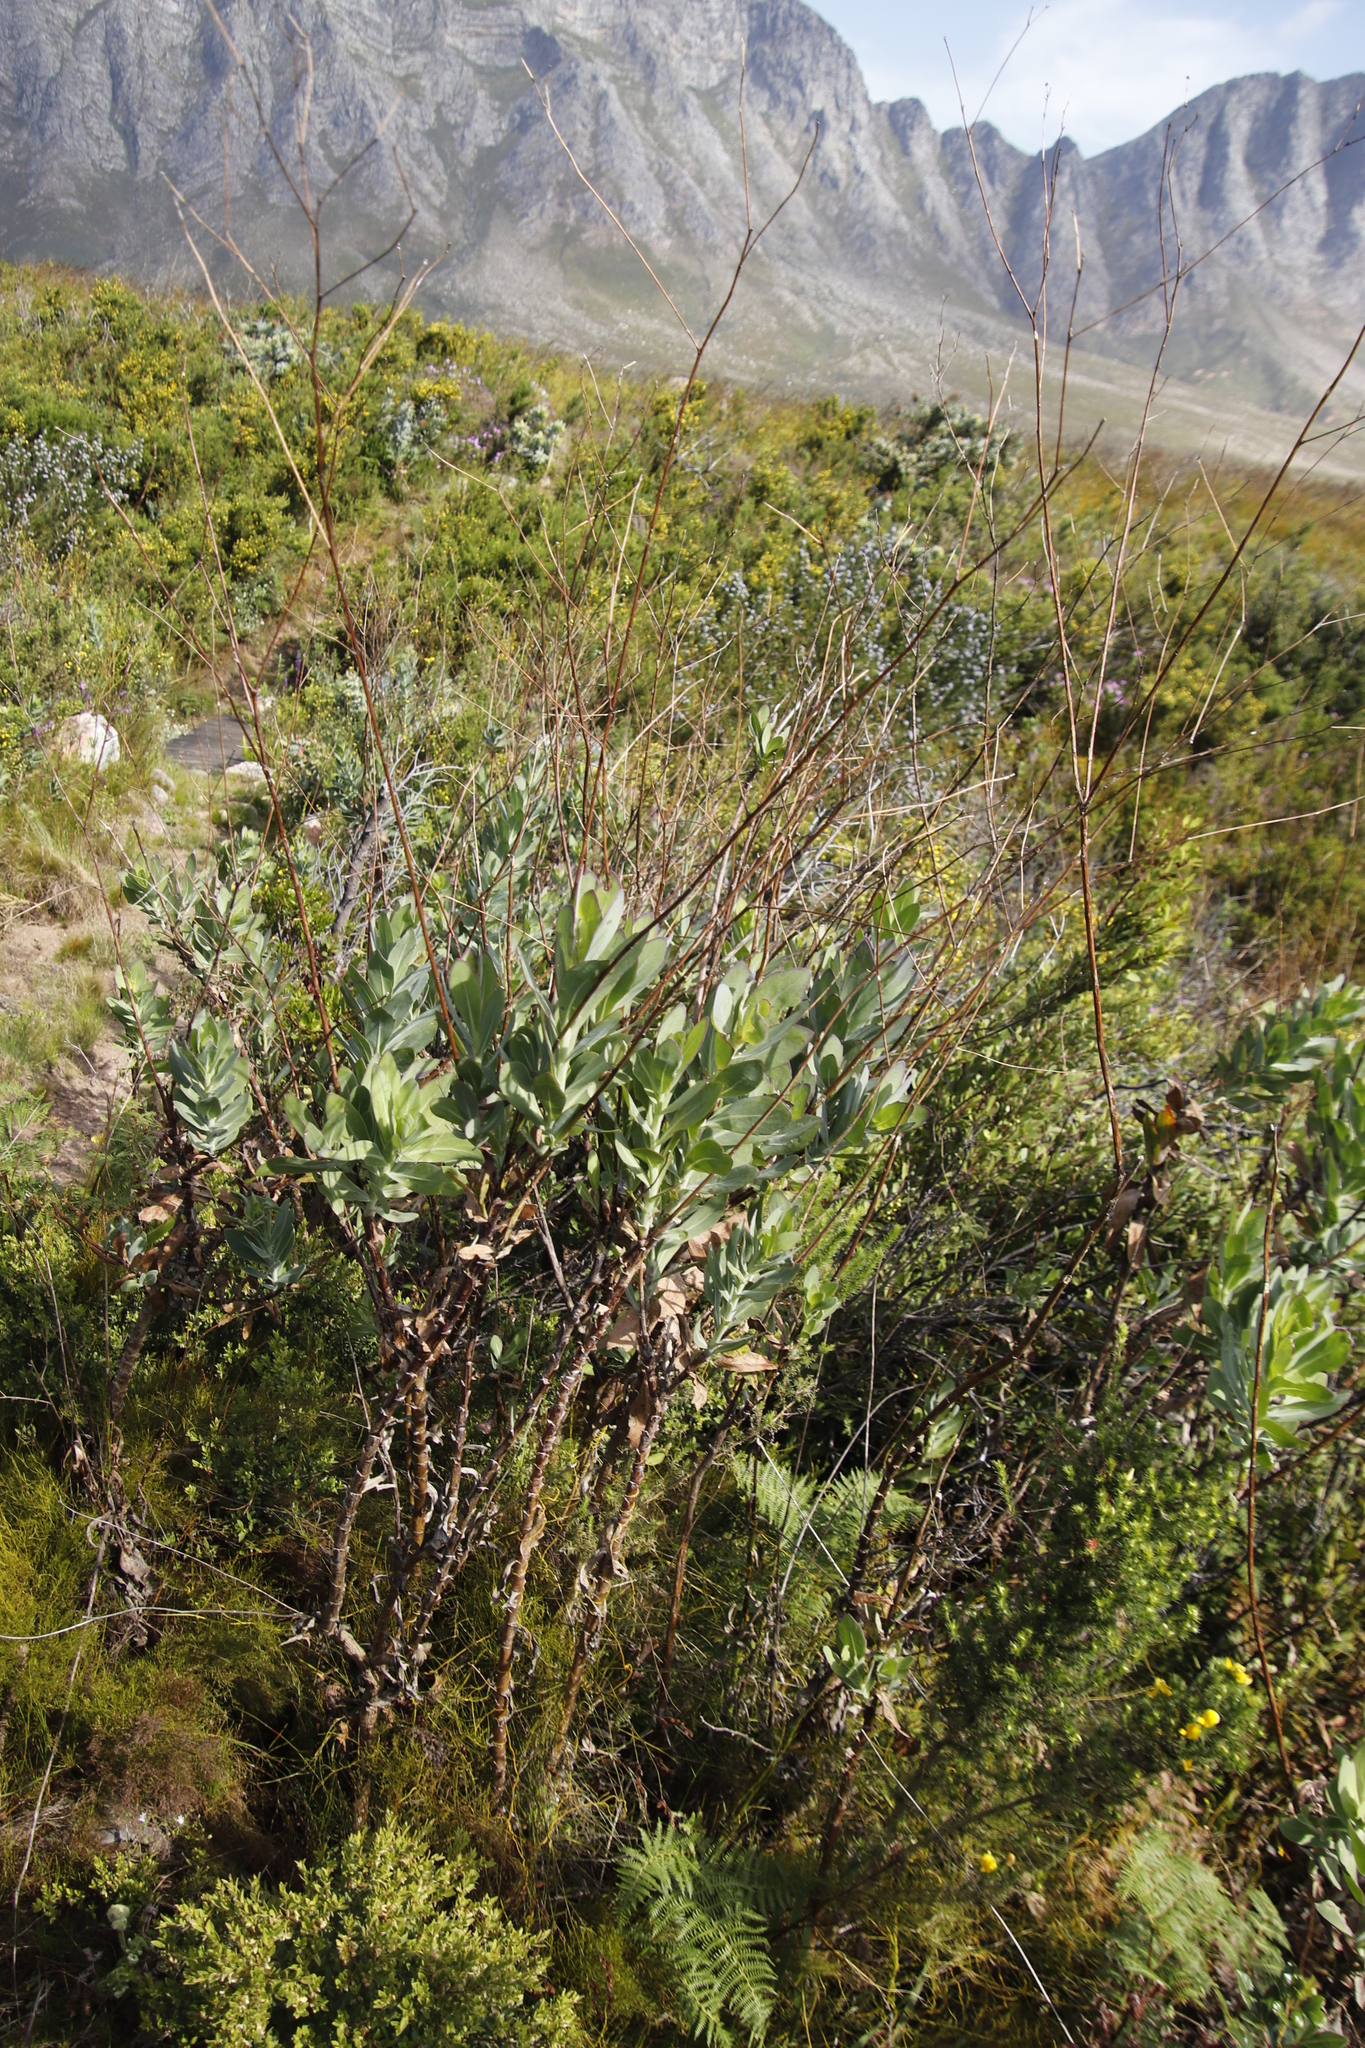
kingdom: Plantae
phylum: Tracheophyta
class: Magnoliopsida
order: Asterales
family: Asteraceae
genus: Othonna
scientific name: Othonna quinquedentata
